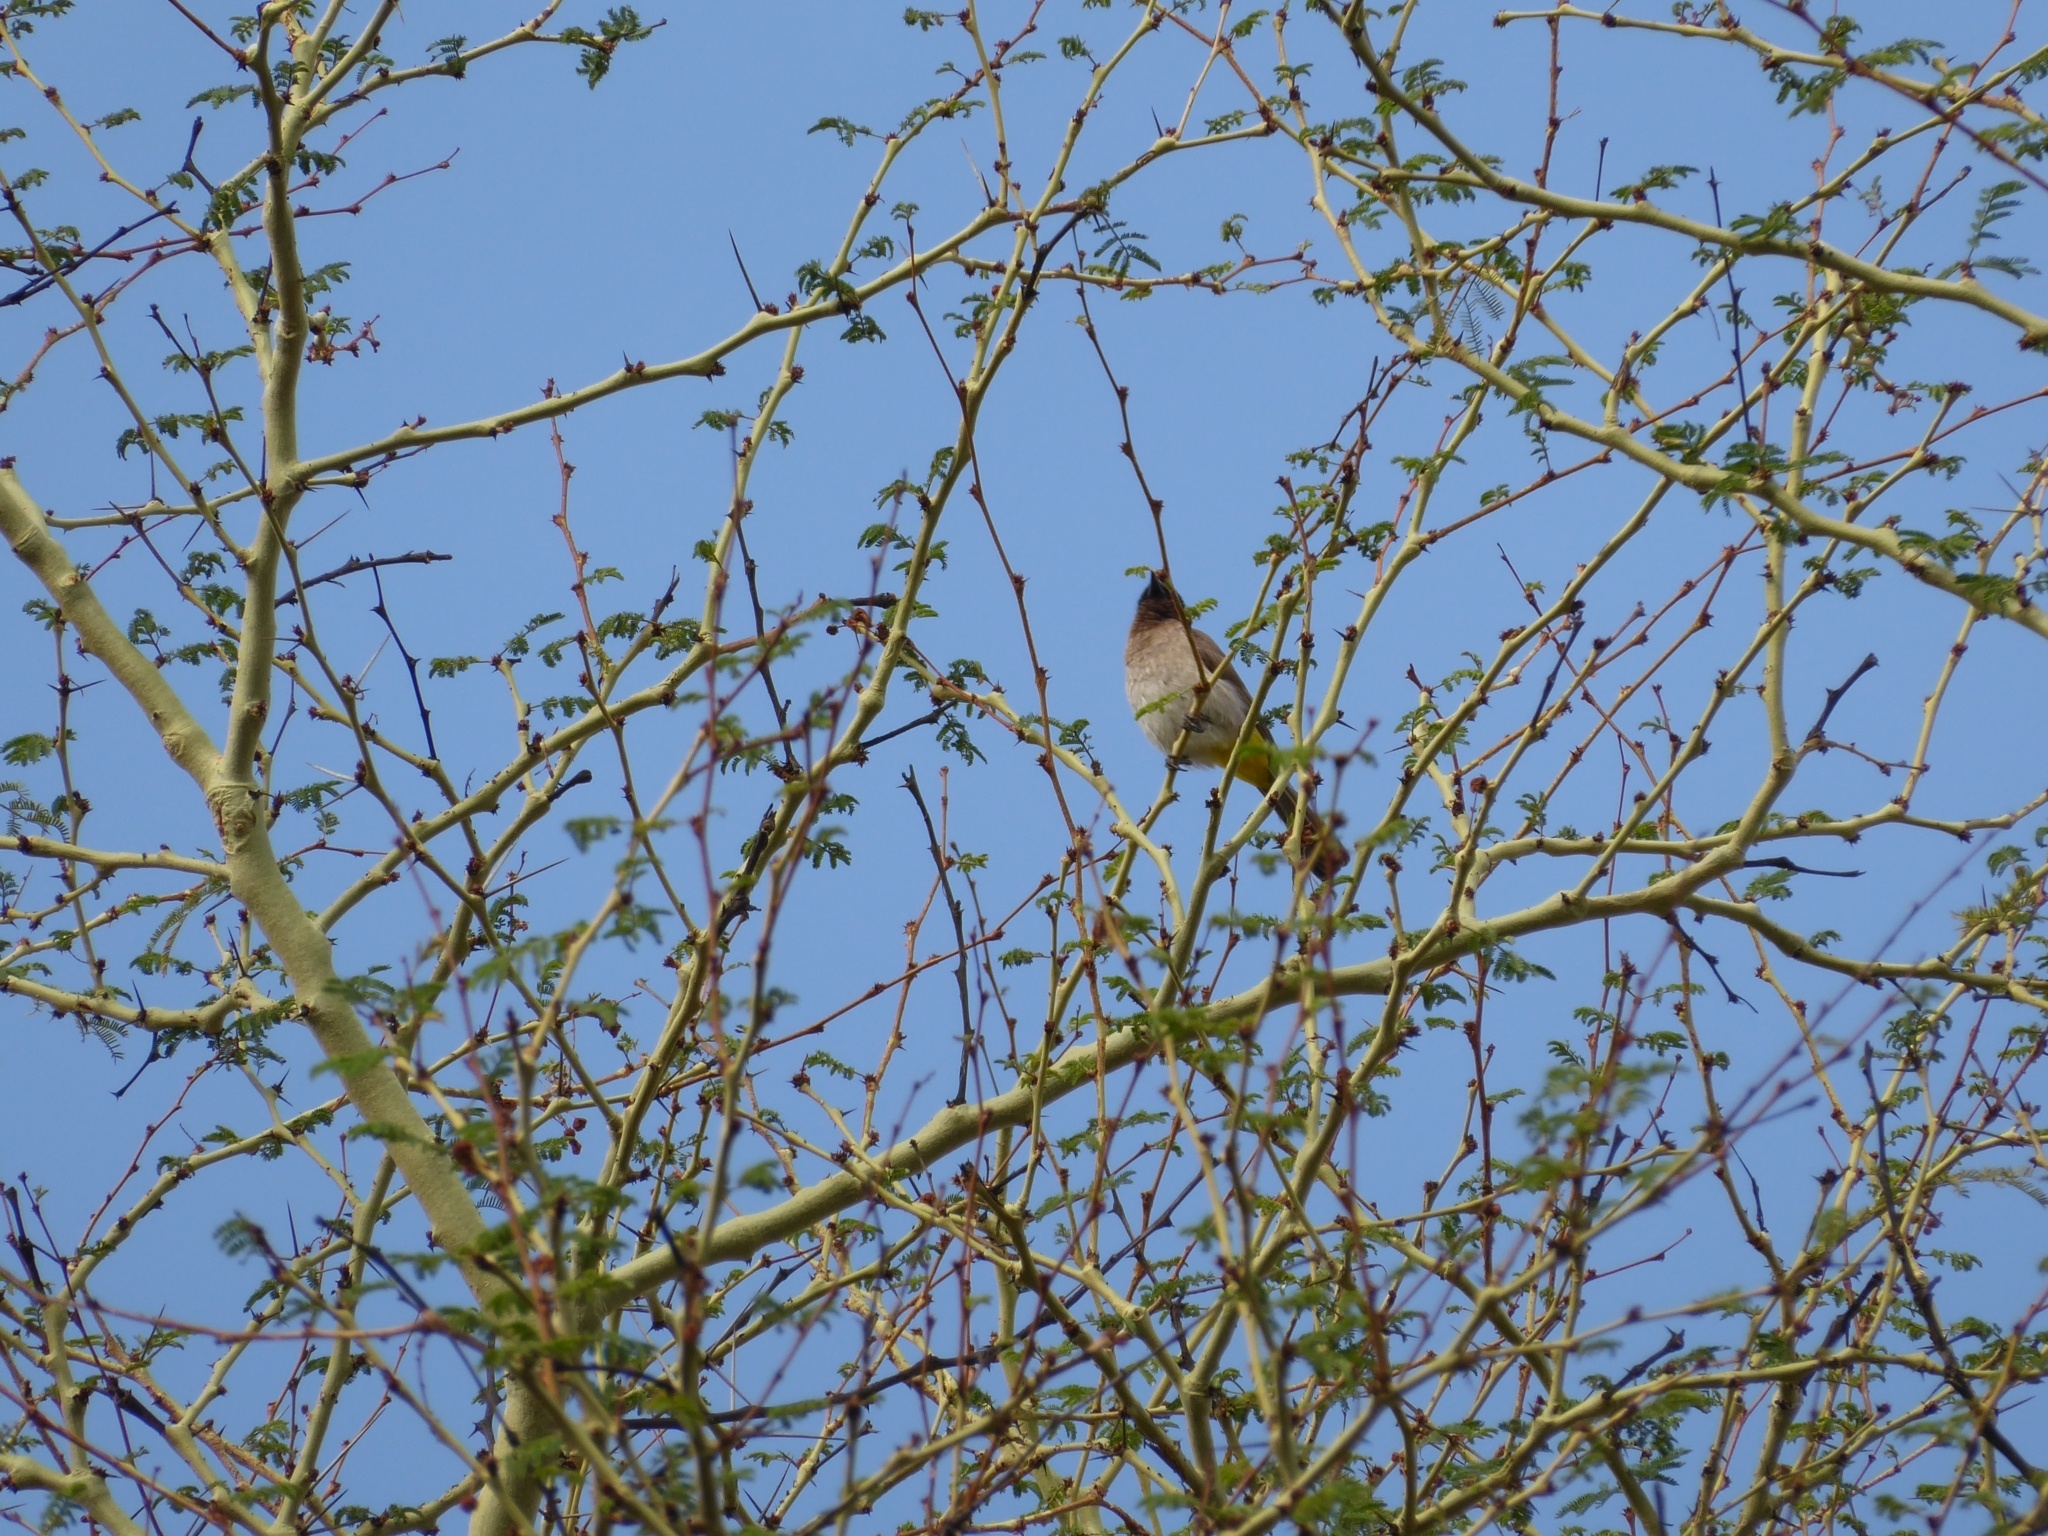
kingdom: Animalia
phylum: Chordata
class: Aves
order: Passeriformes
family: Pycnonotidae
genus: Pycnonotus
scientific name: Pycnonotus barbatus
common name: Common bulbul
